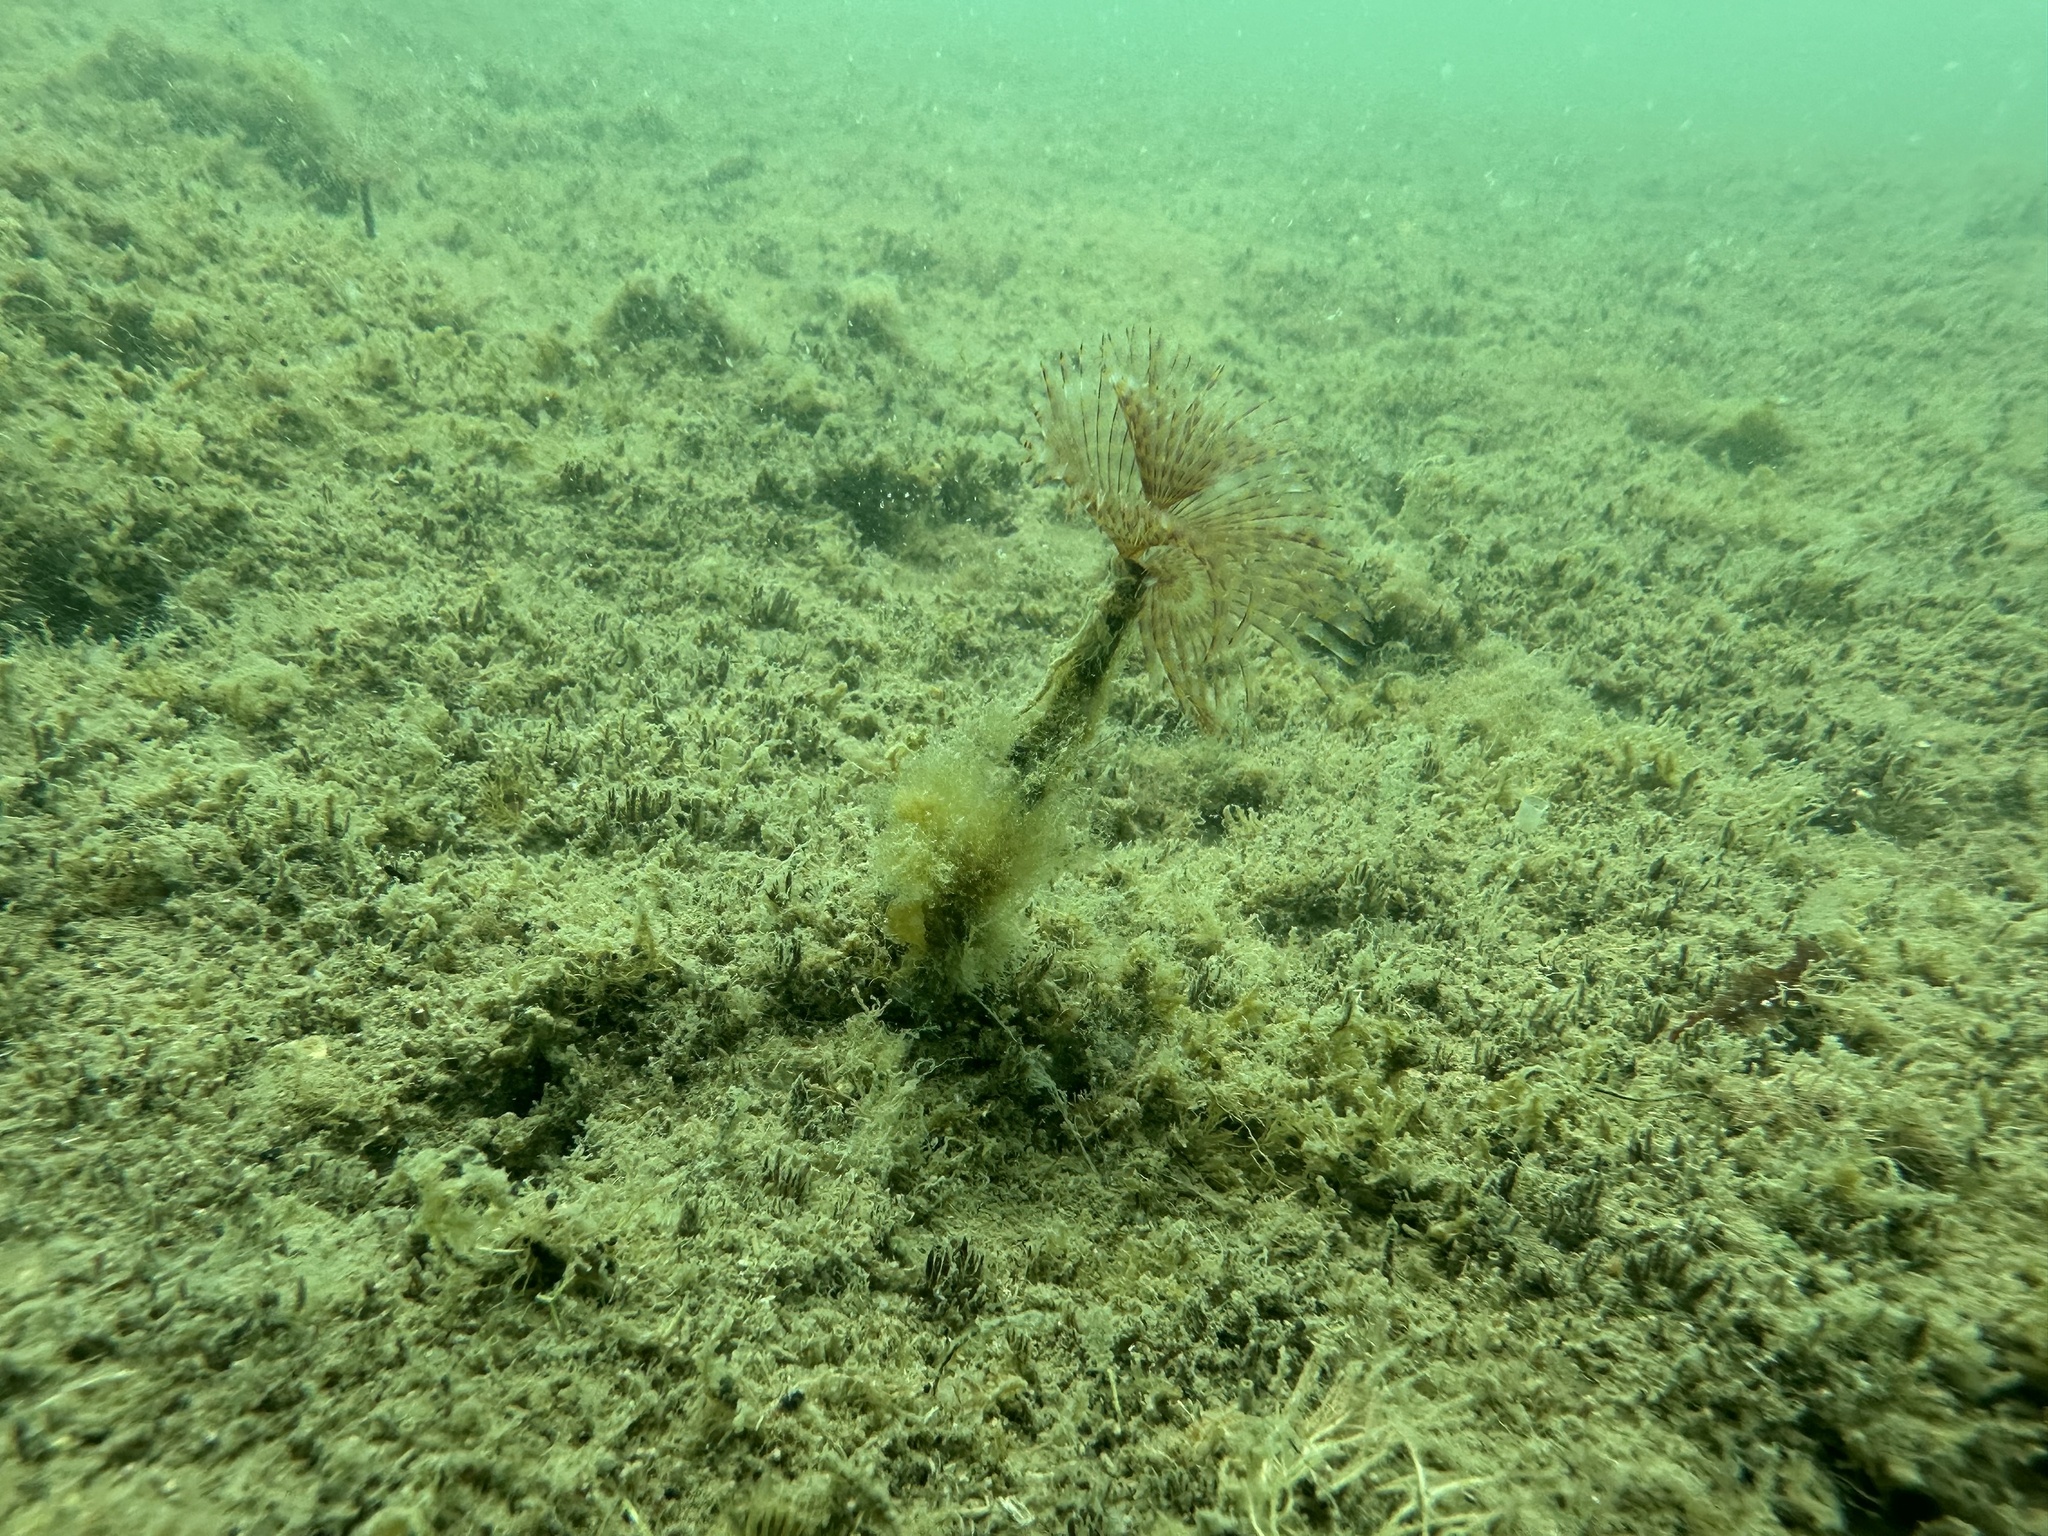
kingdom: Animalia
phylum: Annelida
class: Polychaeta
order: Sabellida
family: Sabellidae
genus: Sabella
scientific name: Sabella spallanzanii
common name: Feather duster worm
